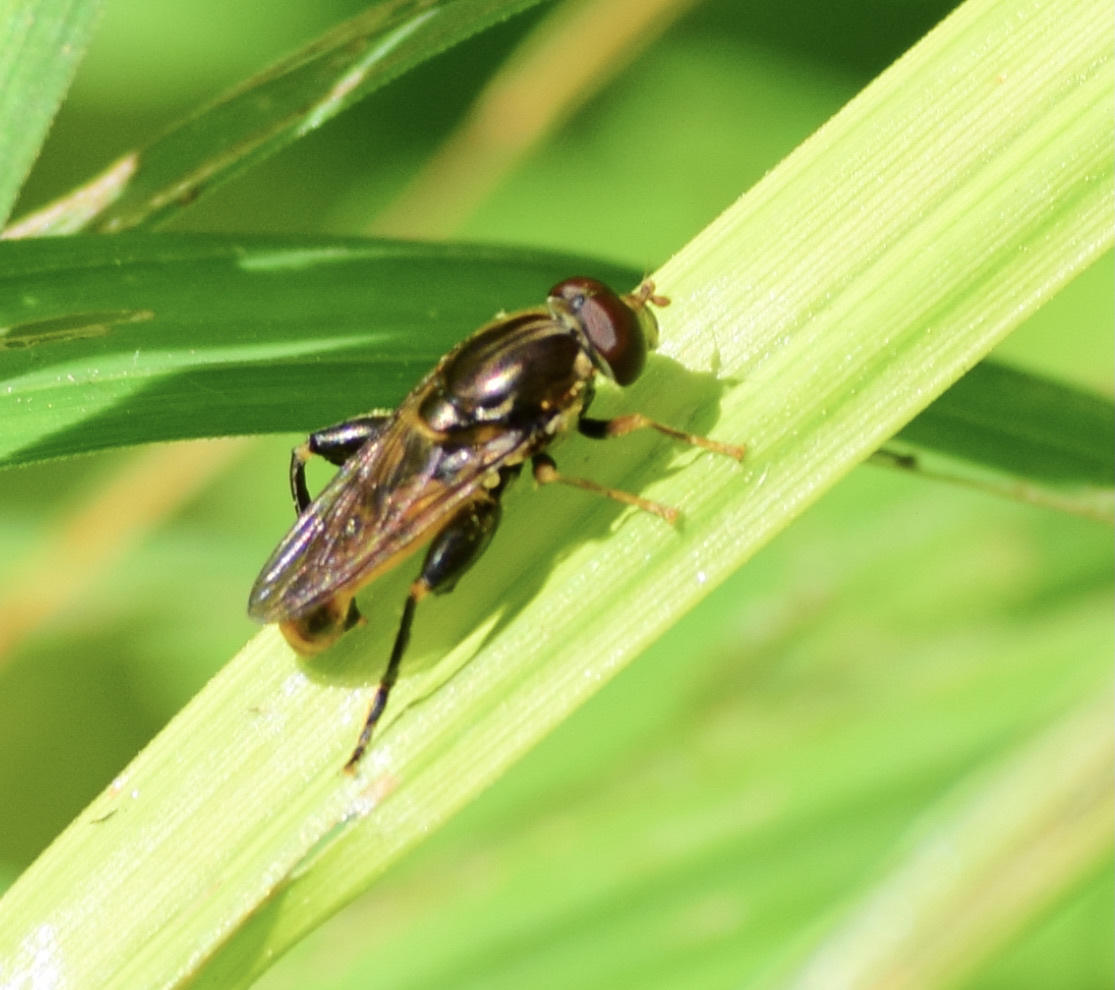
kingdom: Animalia
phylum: Arthropoda
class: Insecta
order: Diptera
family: Syrphidae
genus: Tropidia
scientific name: Tropidia quadrata
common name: Common thick-legged fly
